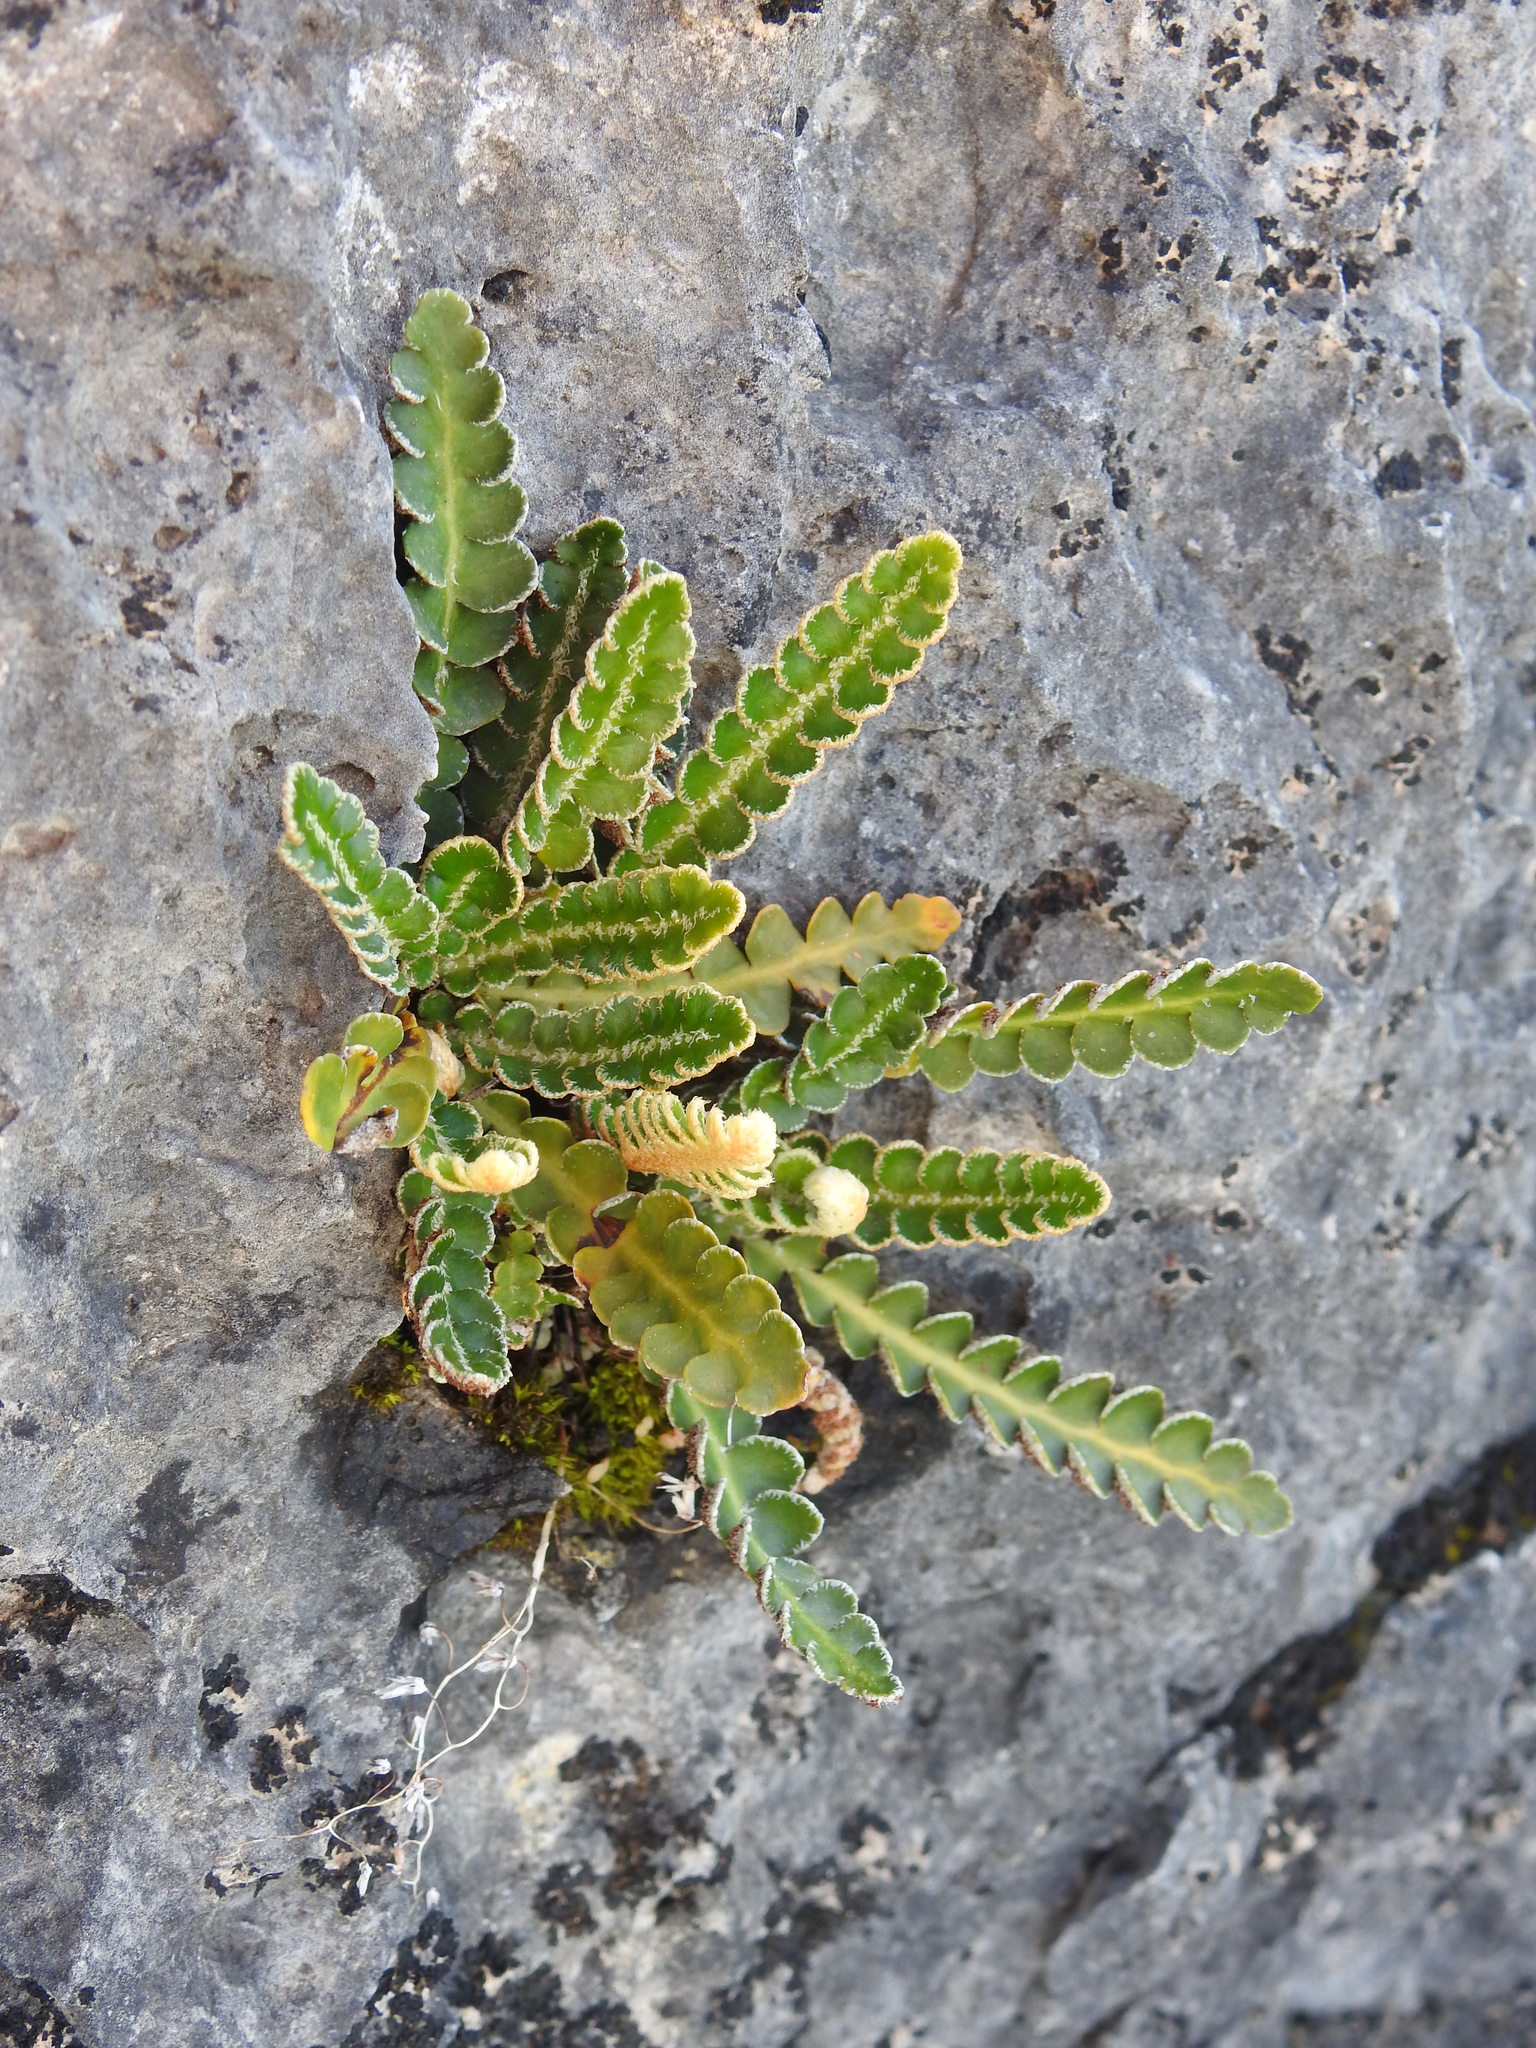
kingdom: Plantae
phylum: Tracheophyta
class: Polypodiopsida
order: Polypodiales
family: Aspleniaceae
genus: Asplenium
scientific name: Asplenium ceterach
